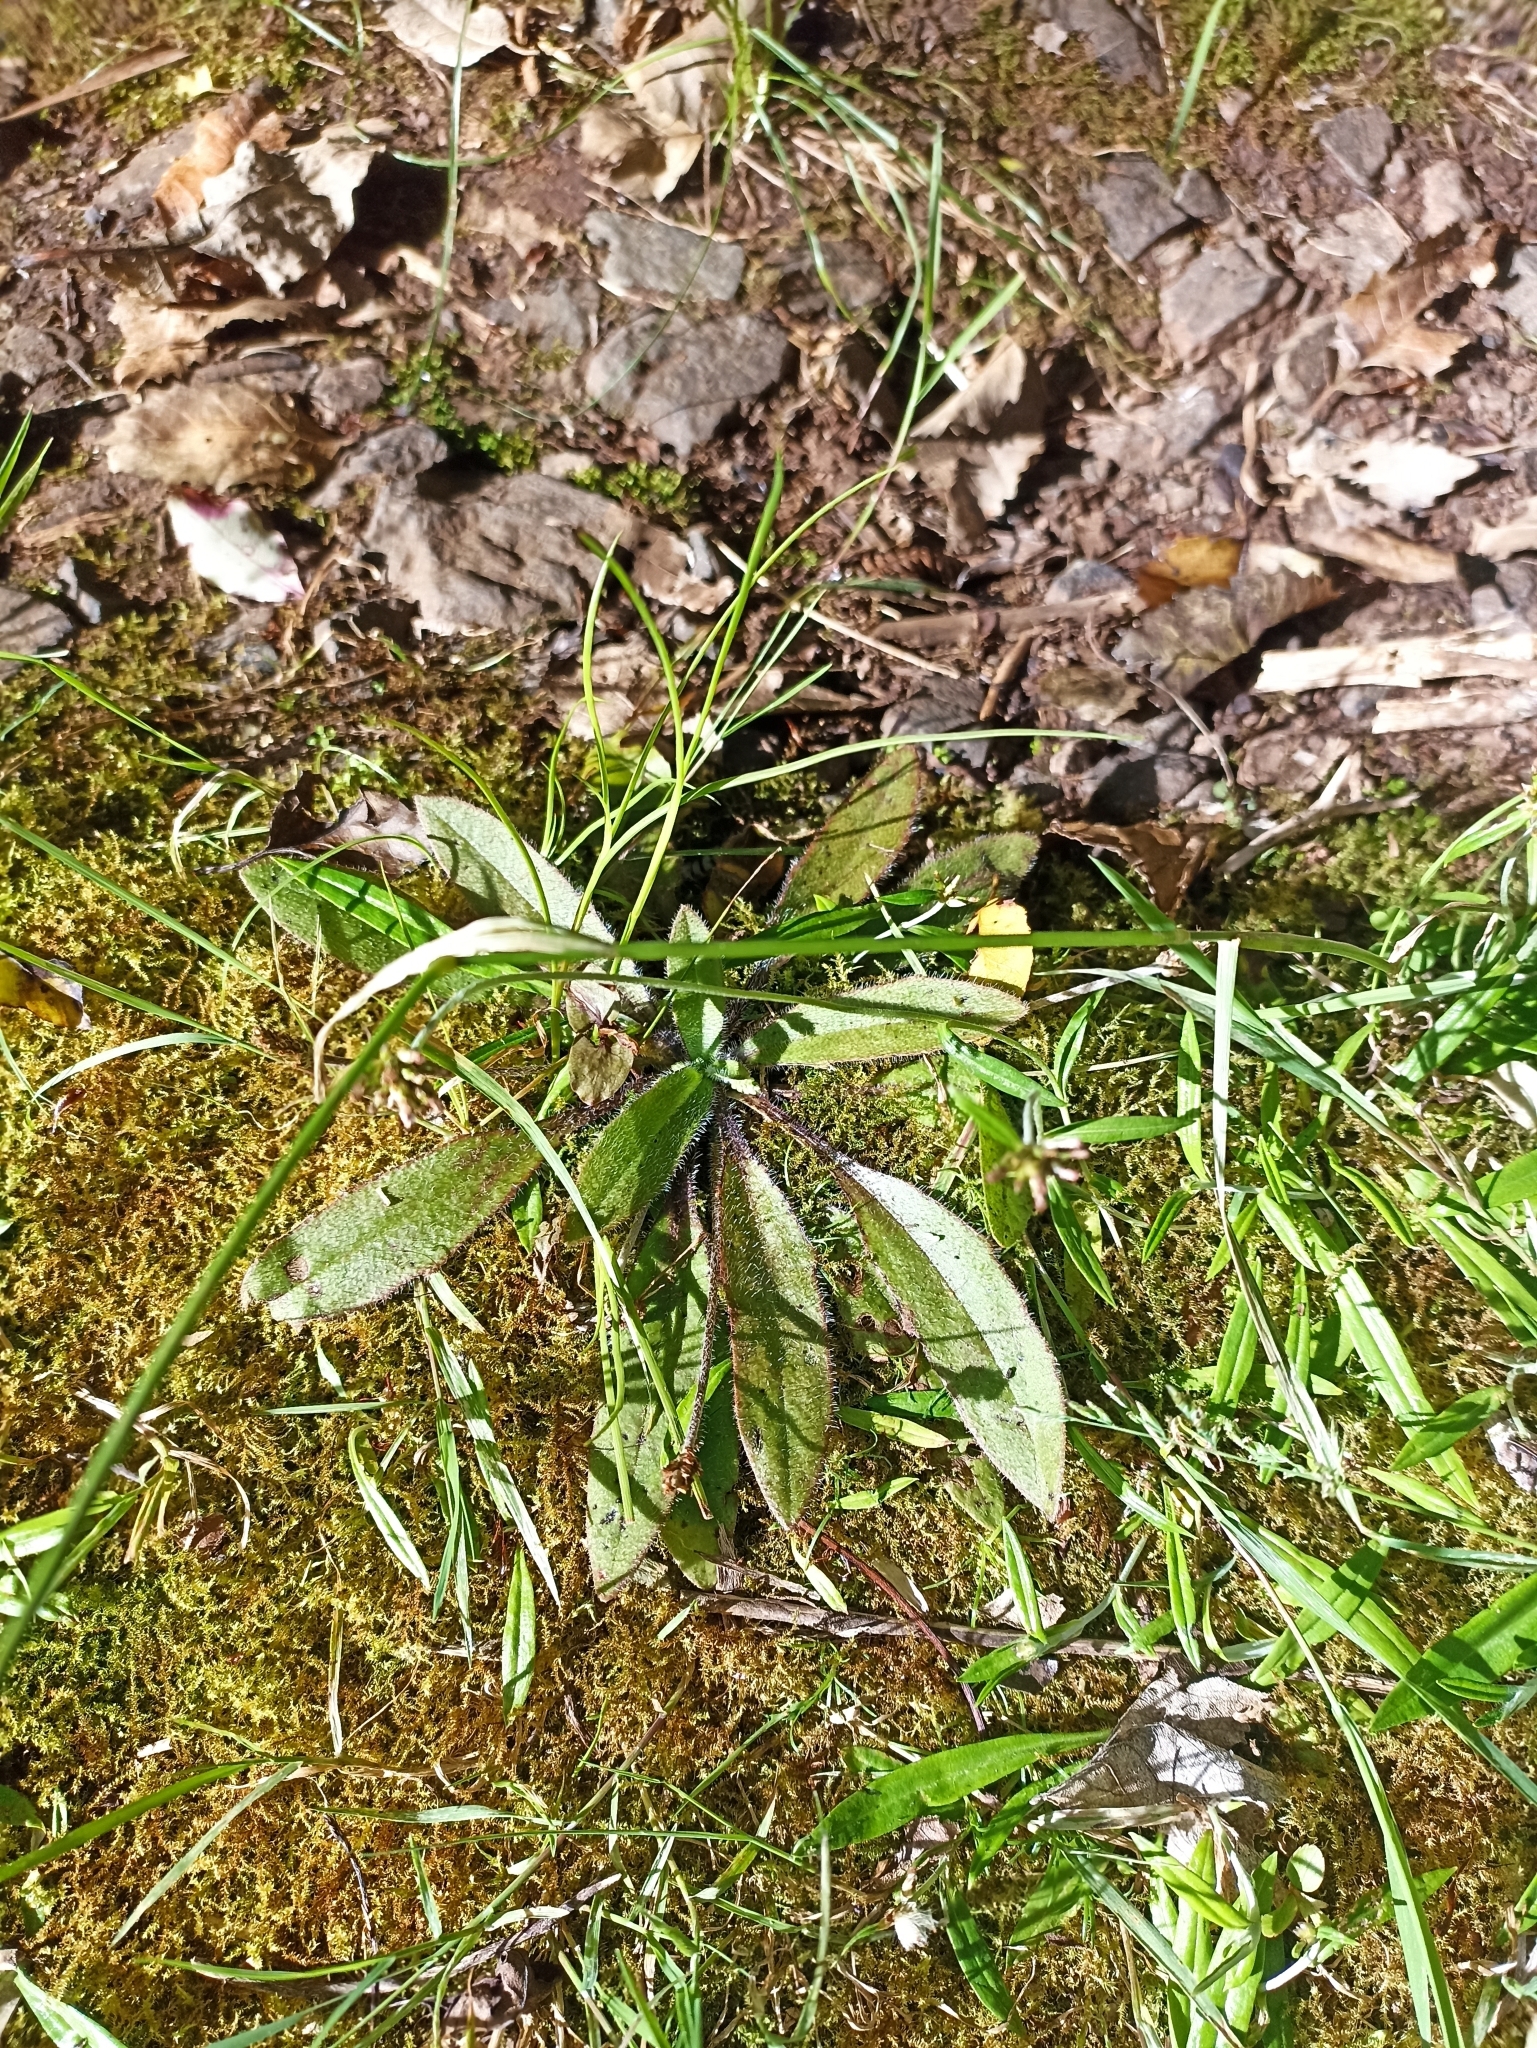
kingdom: Plantae
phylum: Tracheophyta
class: Magnoliopsida
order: Lamiales
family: Plantaginaceae
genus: Plantago
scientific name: Plantago raoulii
